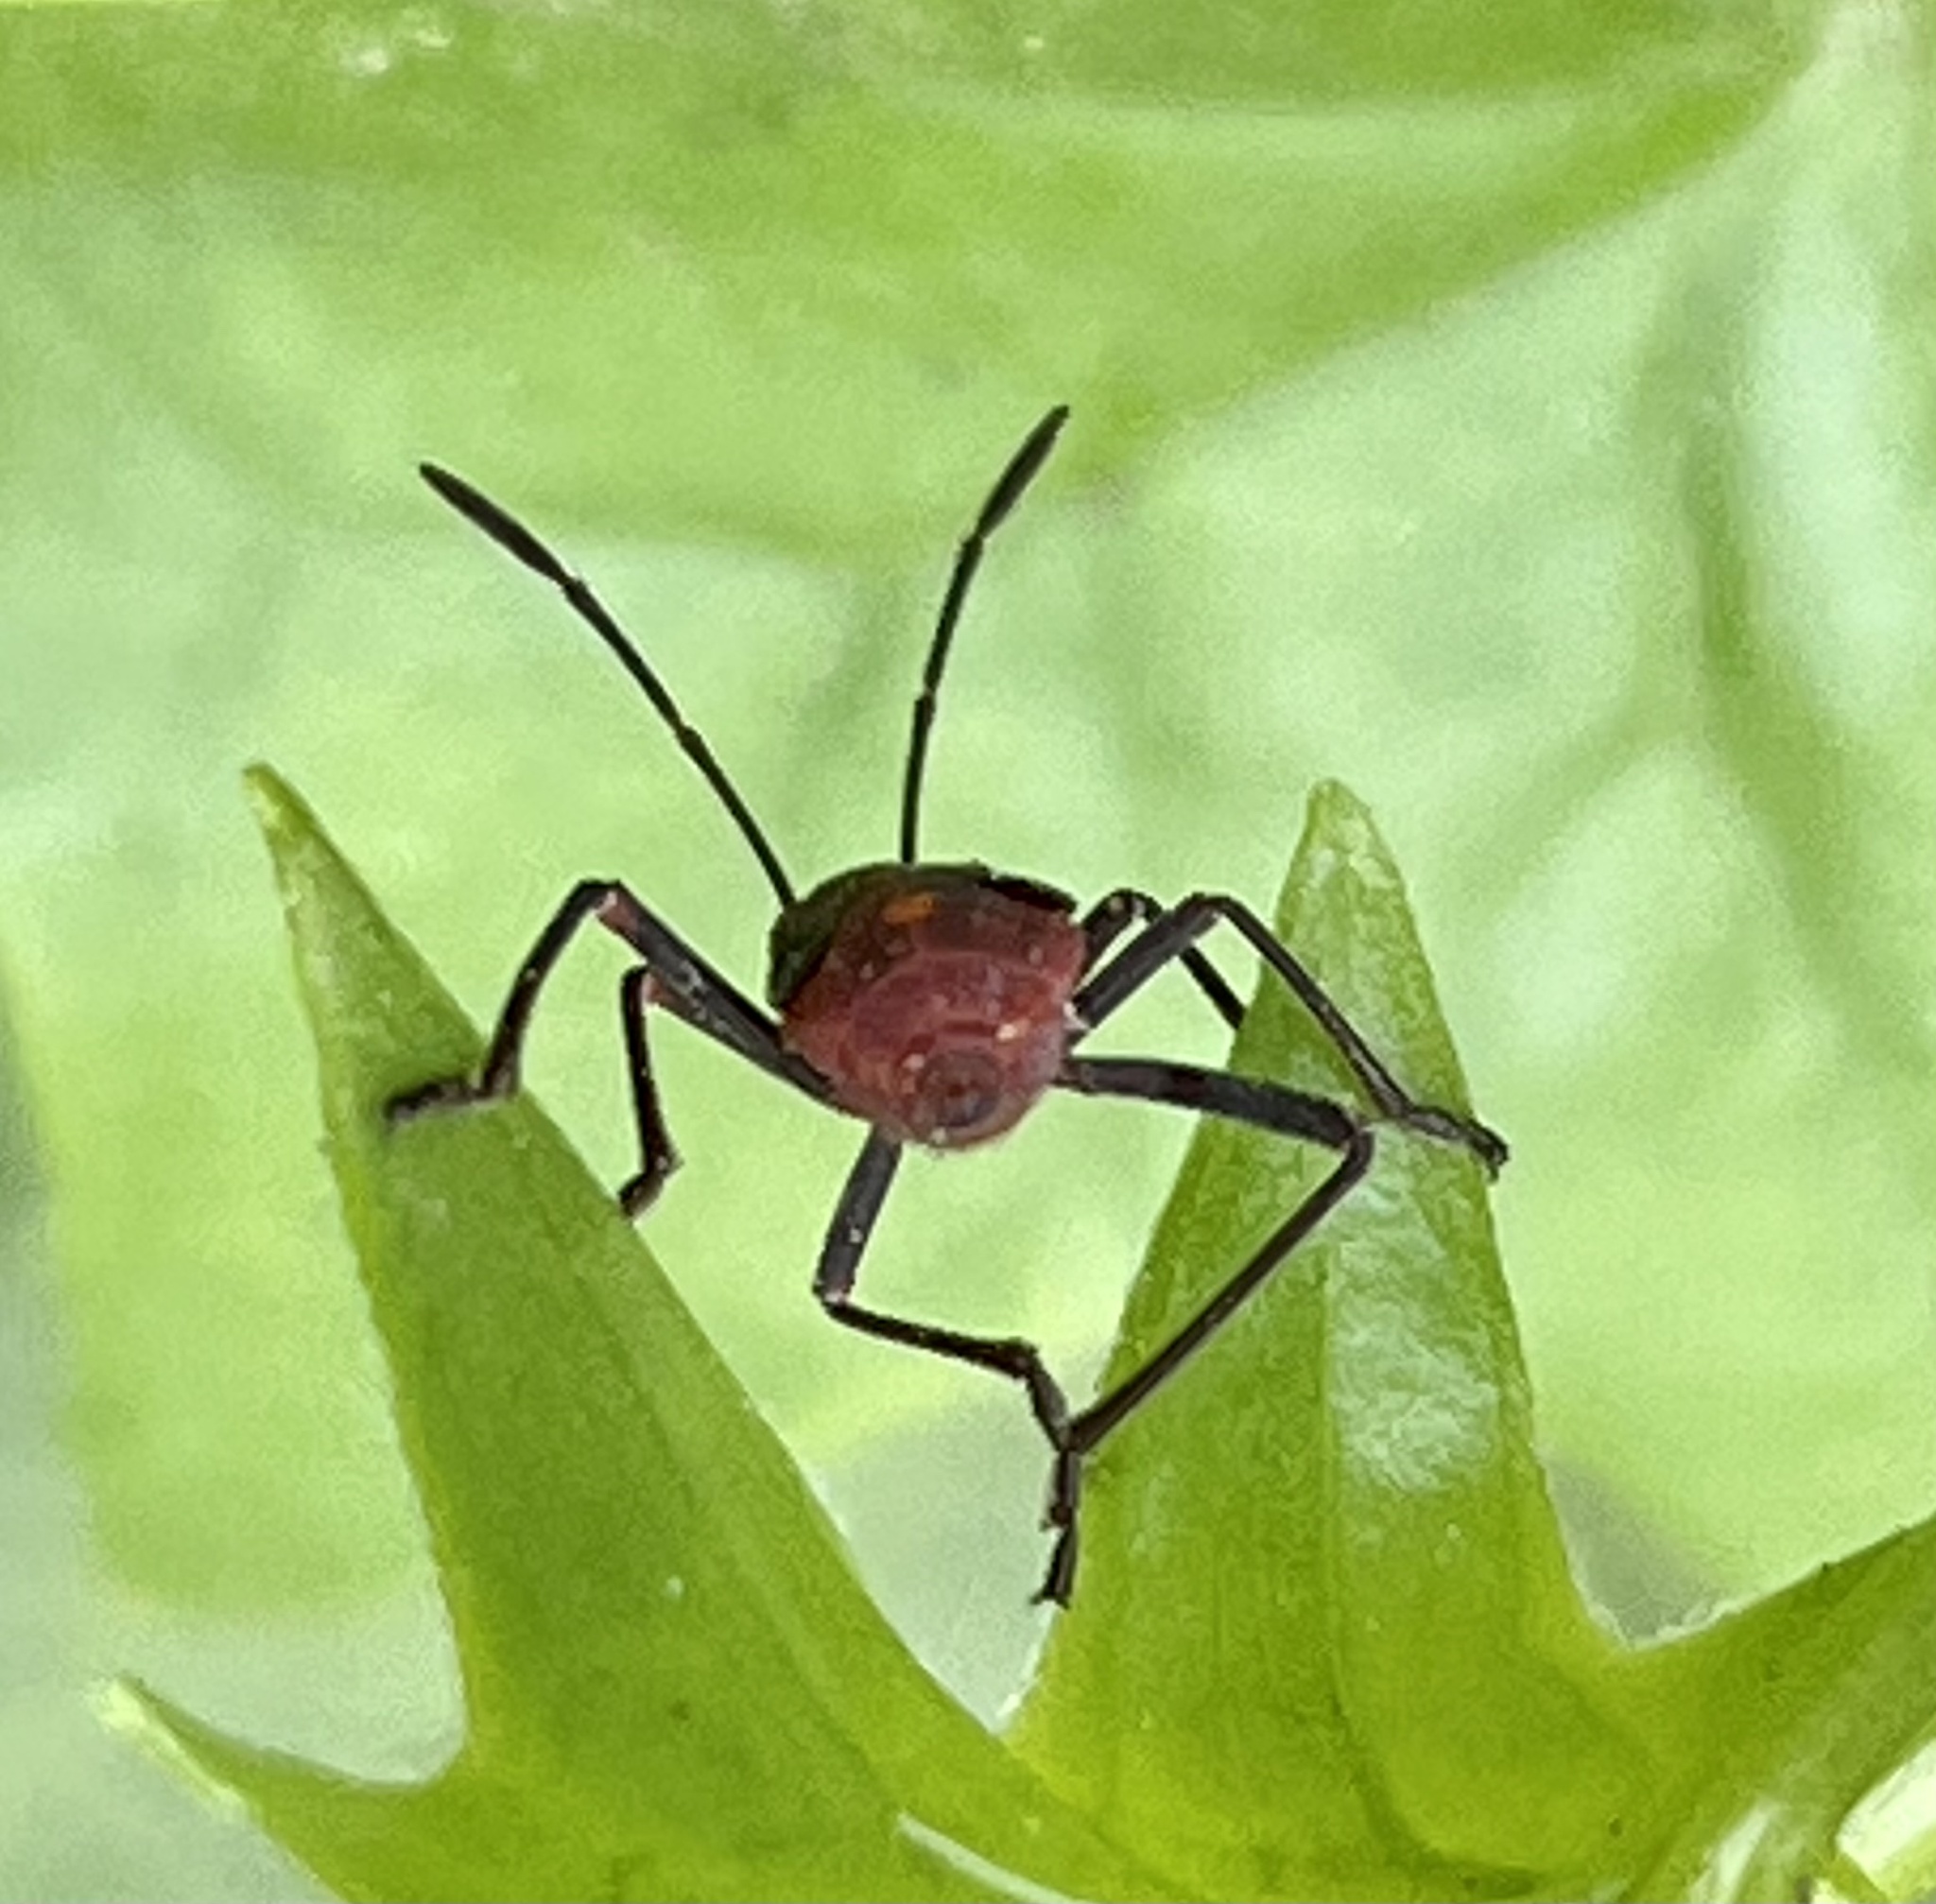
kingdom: Plantae
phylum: Tracheophyta
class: Magnoliopsida
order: Asterales
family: Asteraceae
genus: Delairea
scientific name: Delairea odorata
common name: Cape-ivy
